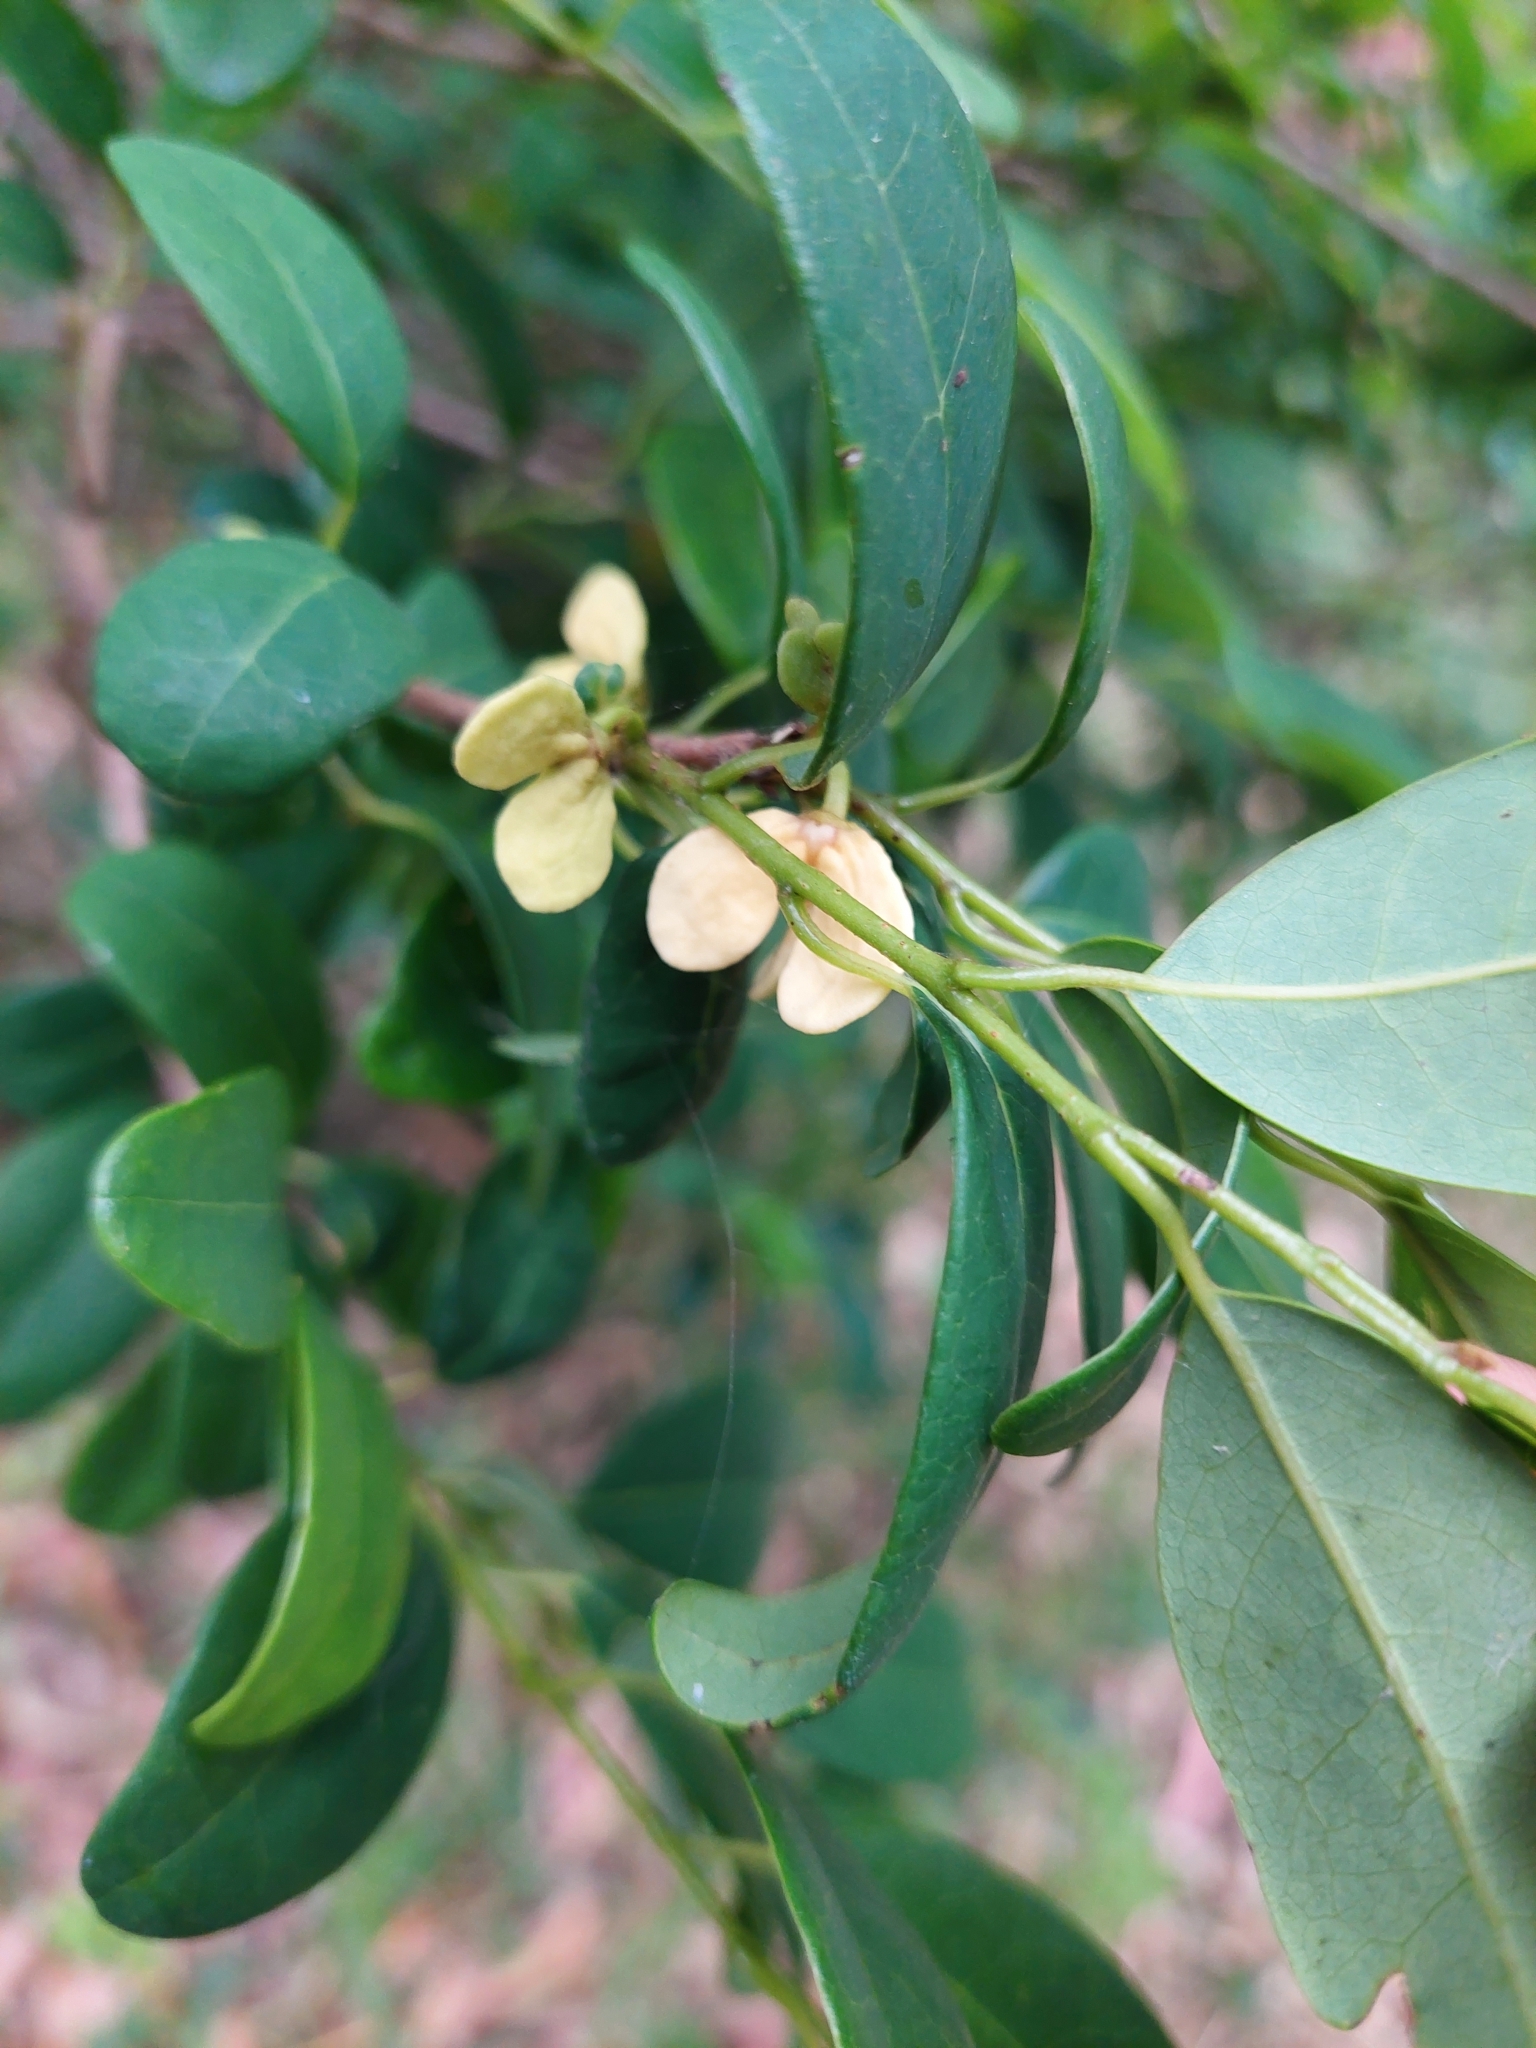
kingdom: Plantae
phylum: Tracheophyta
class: Magnoliopsida
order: Magnoliales
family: Annonaceae
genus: Annona
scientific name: Annona maritima
